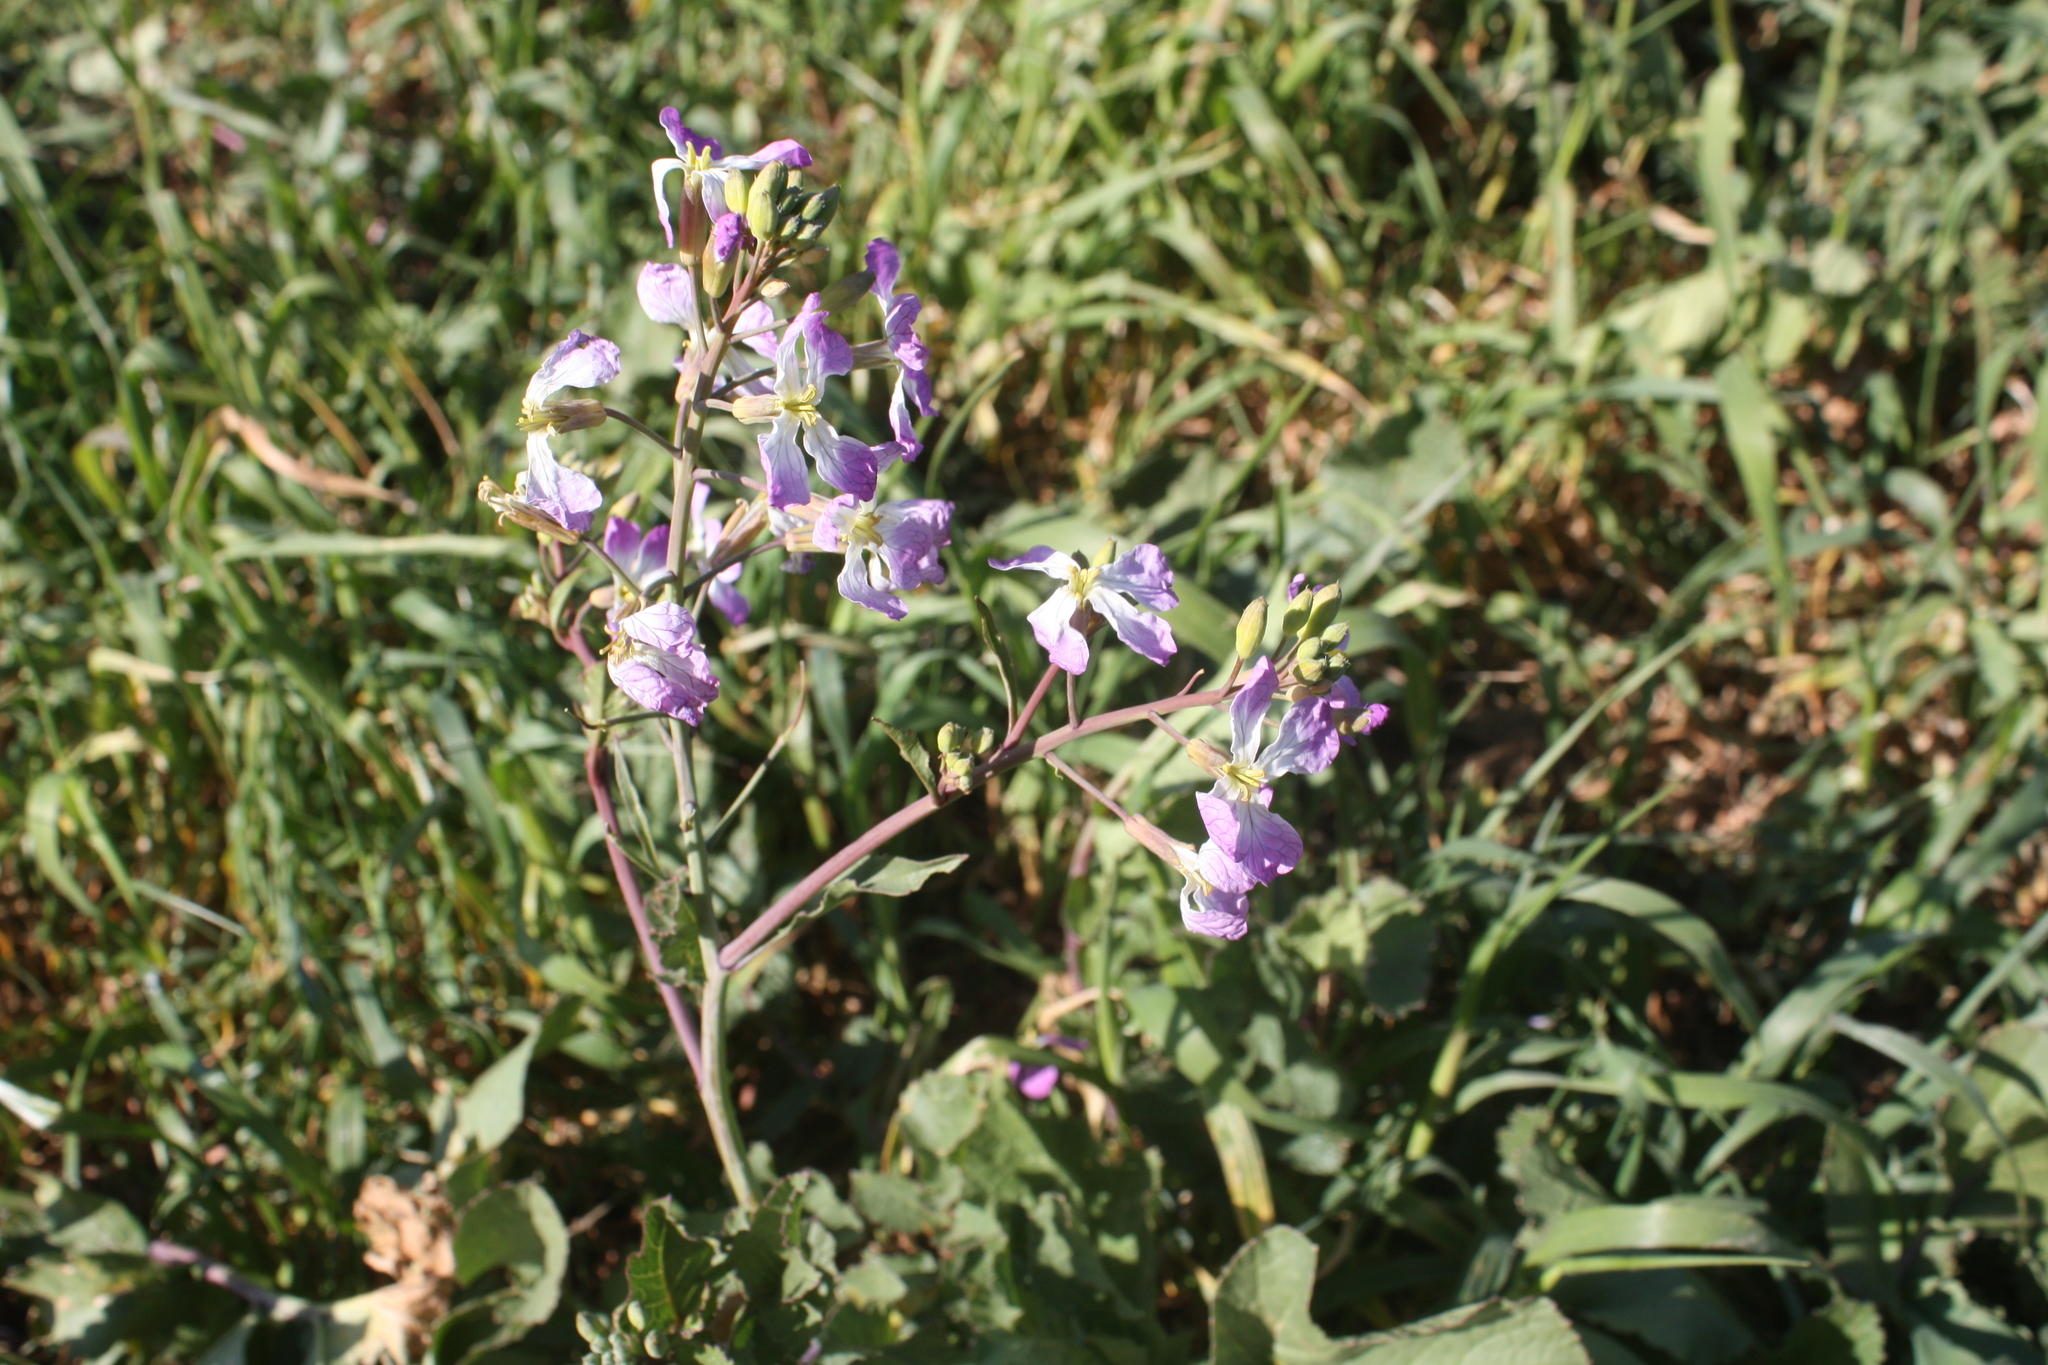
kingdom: Plantae
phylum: Tracheophyta
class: Magnoliopsida
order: Brassicales
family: Brassicaceae
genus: Raphanus
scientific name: Raphanus sativus
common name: Cultivated radish
